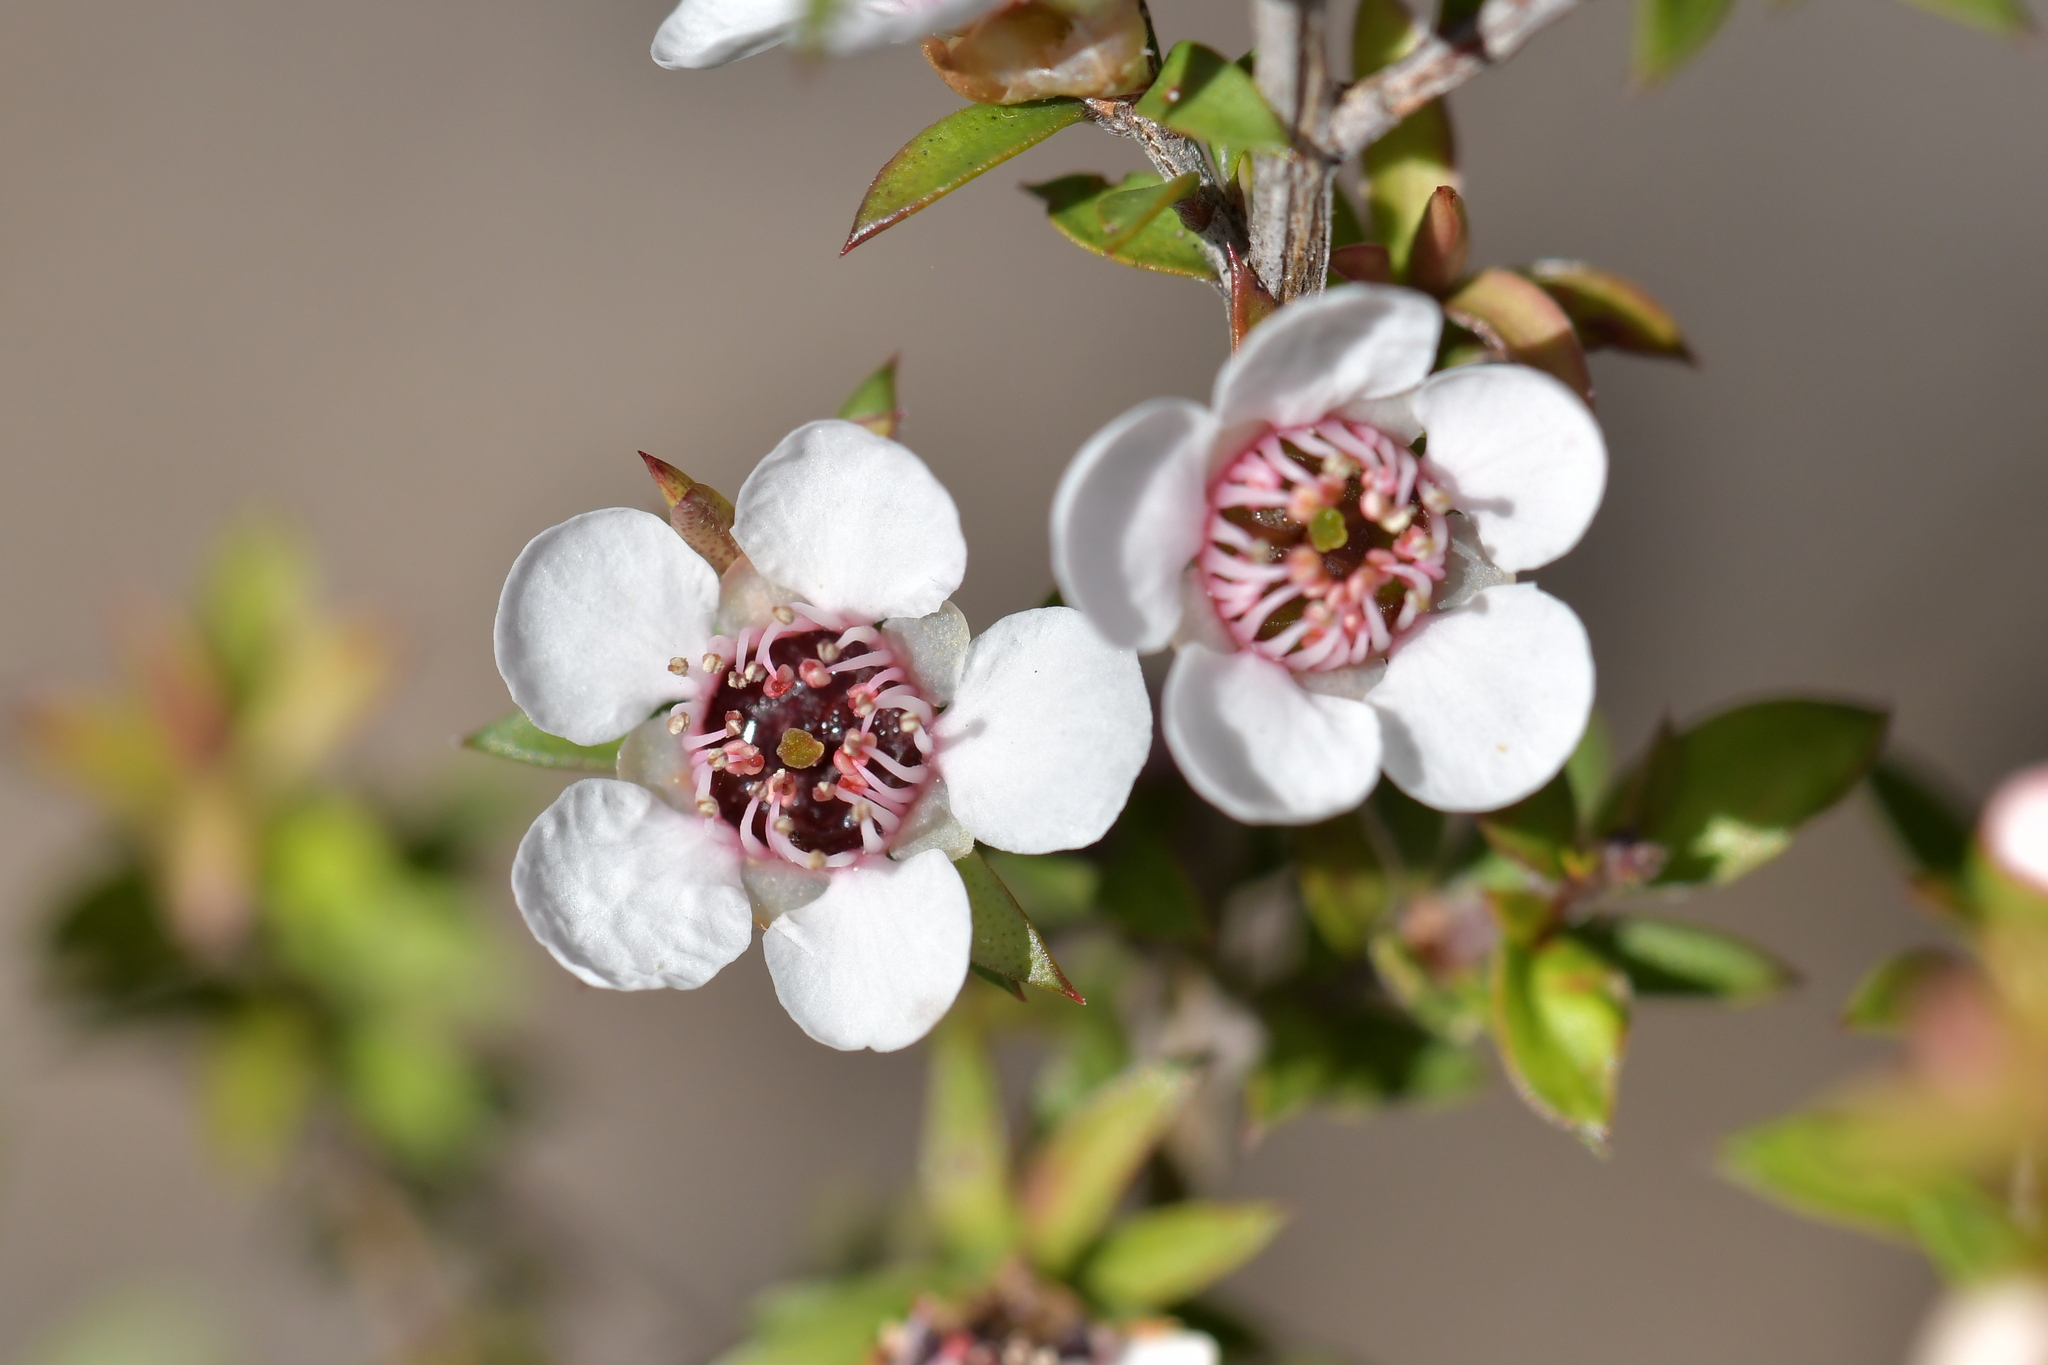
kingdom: Plantae
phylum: Tracheophyta
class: Magnoliopsida
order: Myrtales
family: Myrtaceae
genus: Leptospermum
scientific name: Leptospermum scoparium
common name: Broom tea-tree
